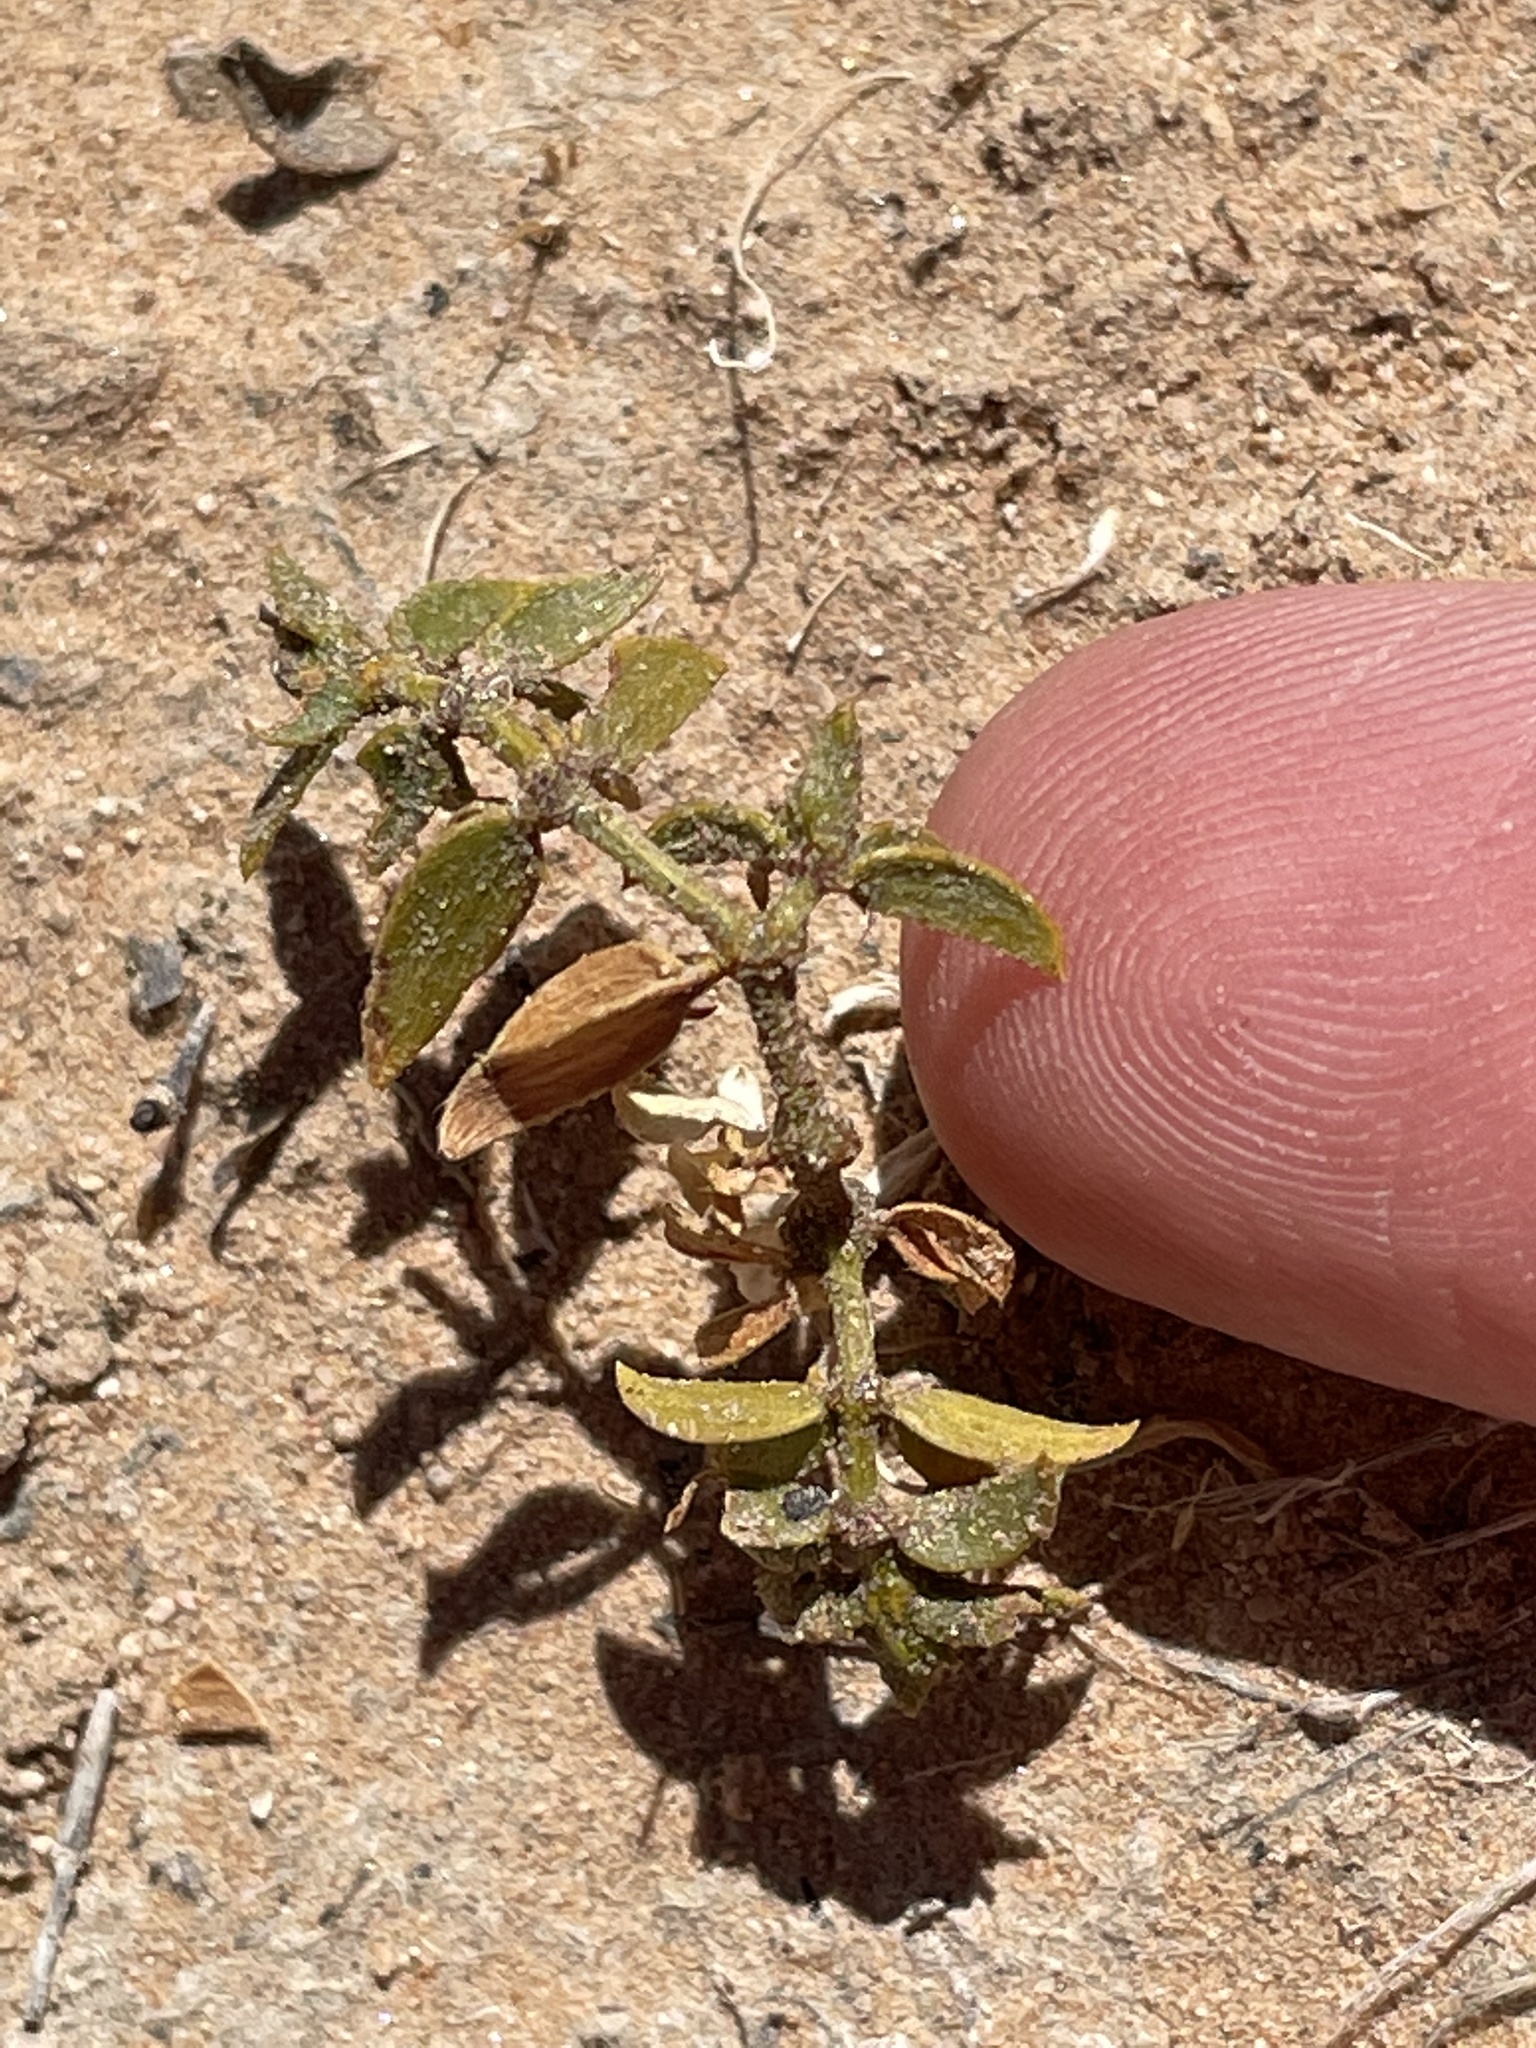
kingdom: Plantae
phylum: Tracheophyta
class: Magnoliopsida
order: Zygophyllales
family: Zygophyllaceae
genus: Larrea
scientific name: Larrea tridentata
